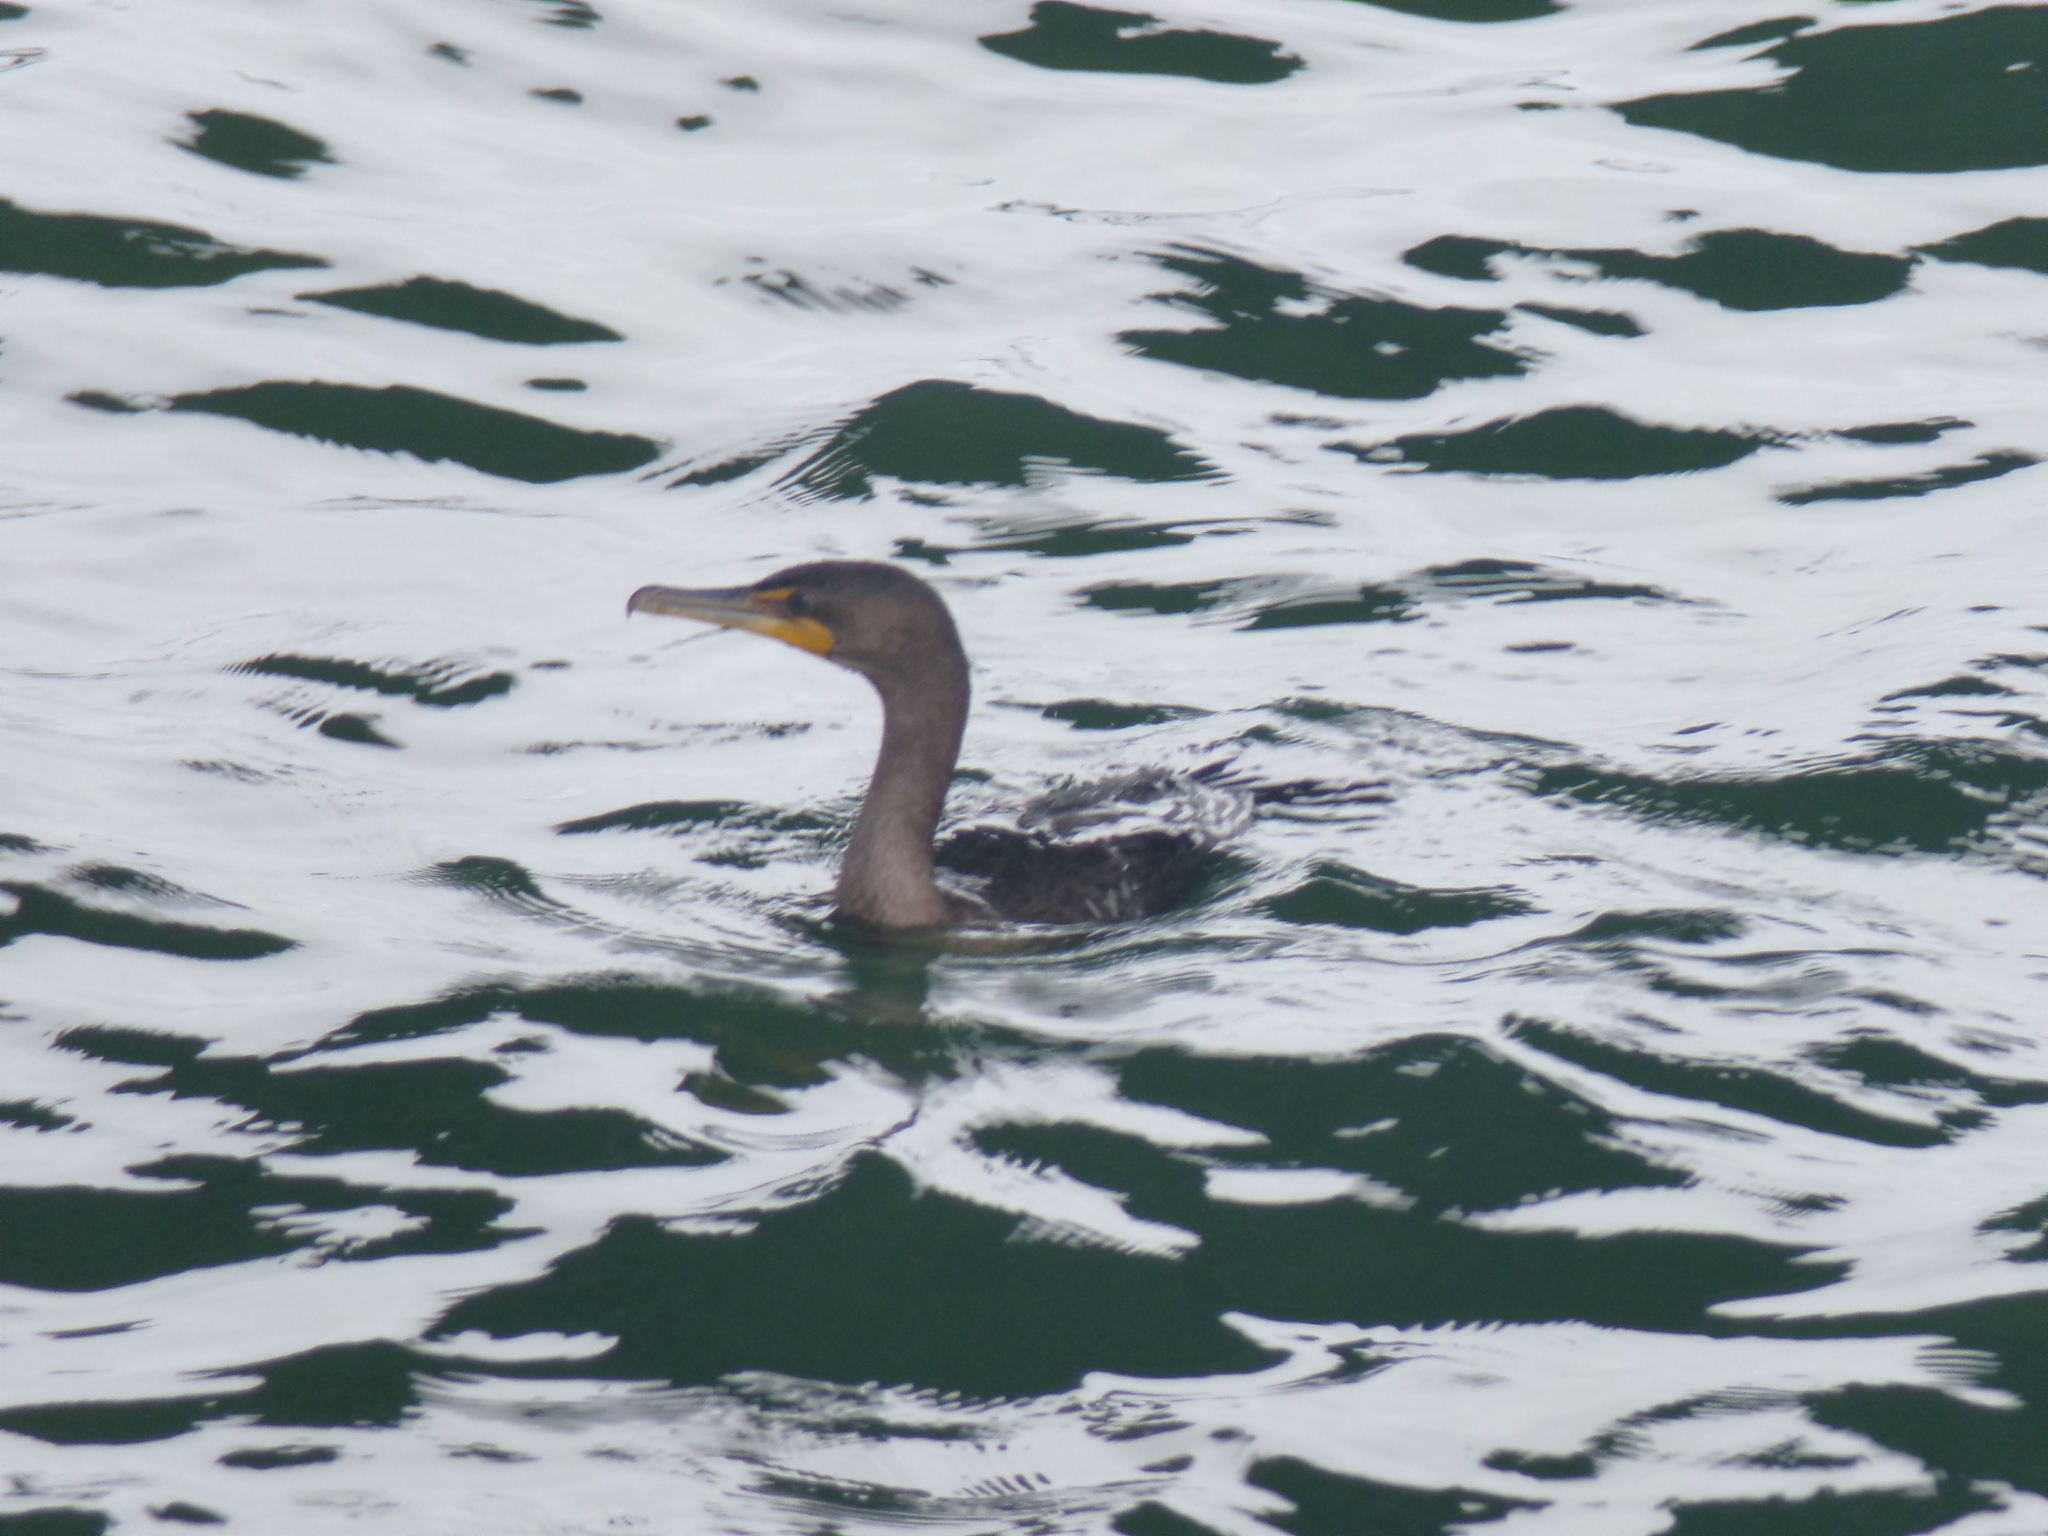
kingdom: Animalia
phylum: Chordata
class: Aves
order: Suliformes
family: Phalacrocoracidae
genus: Phalacrocorax
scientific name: Phalacrocorax auritus
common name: Double-crested cormorant
